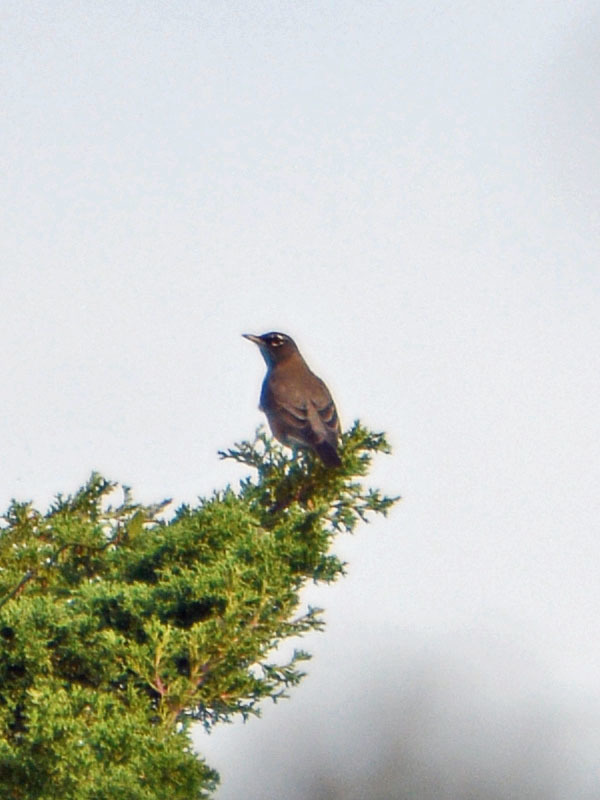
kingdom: Animalia
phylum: Chordata
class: Aves
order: Passeriformes
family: Turdidae
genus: Turdus
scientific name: Turdus migratorius
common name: American robin
